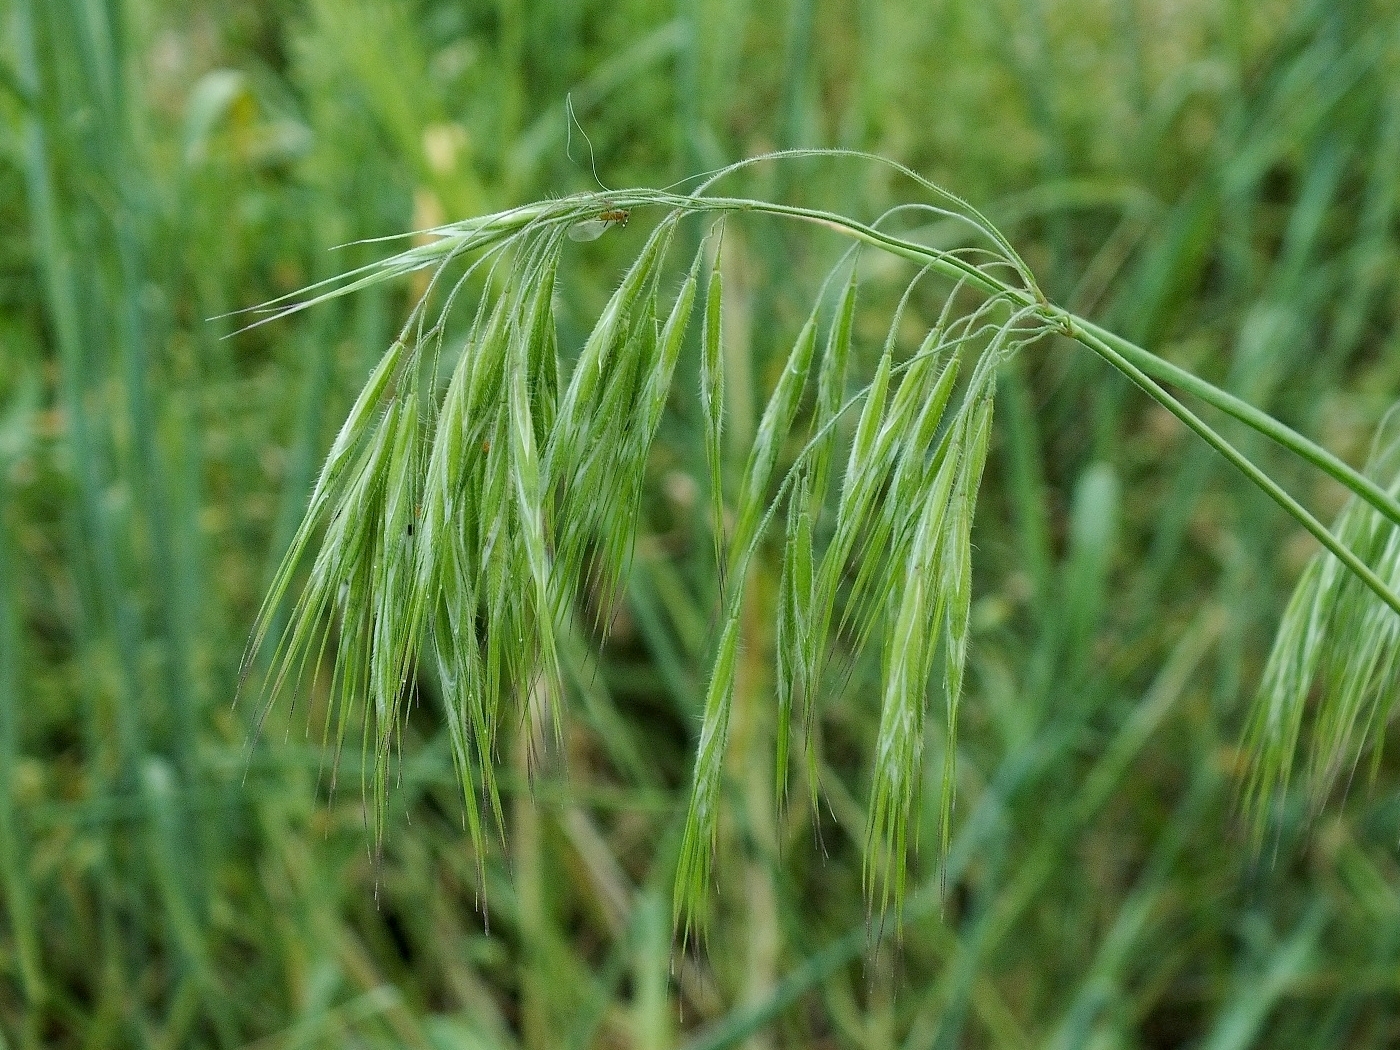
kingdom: Plantae
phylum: Tracheophyta
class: Liliopsida
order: Poales
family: Poaceae
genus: Bromus
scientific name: Bromus tectorum
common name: Cheatgrass
